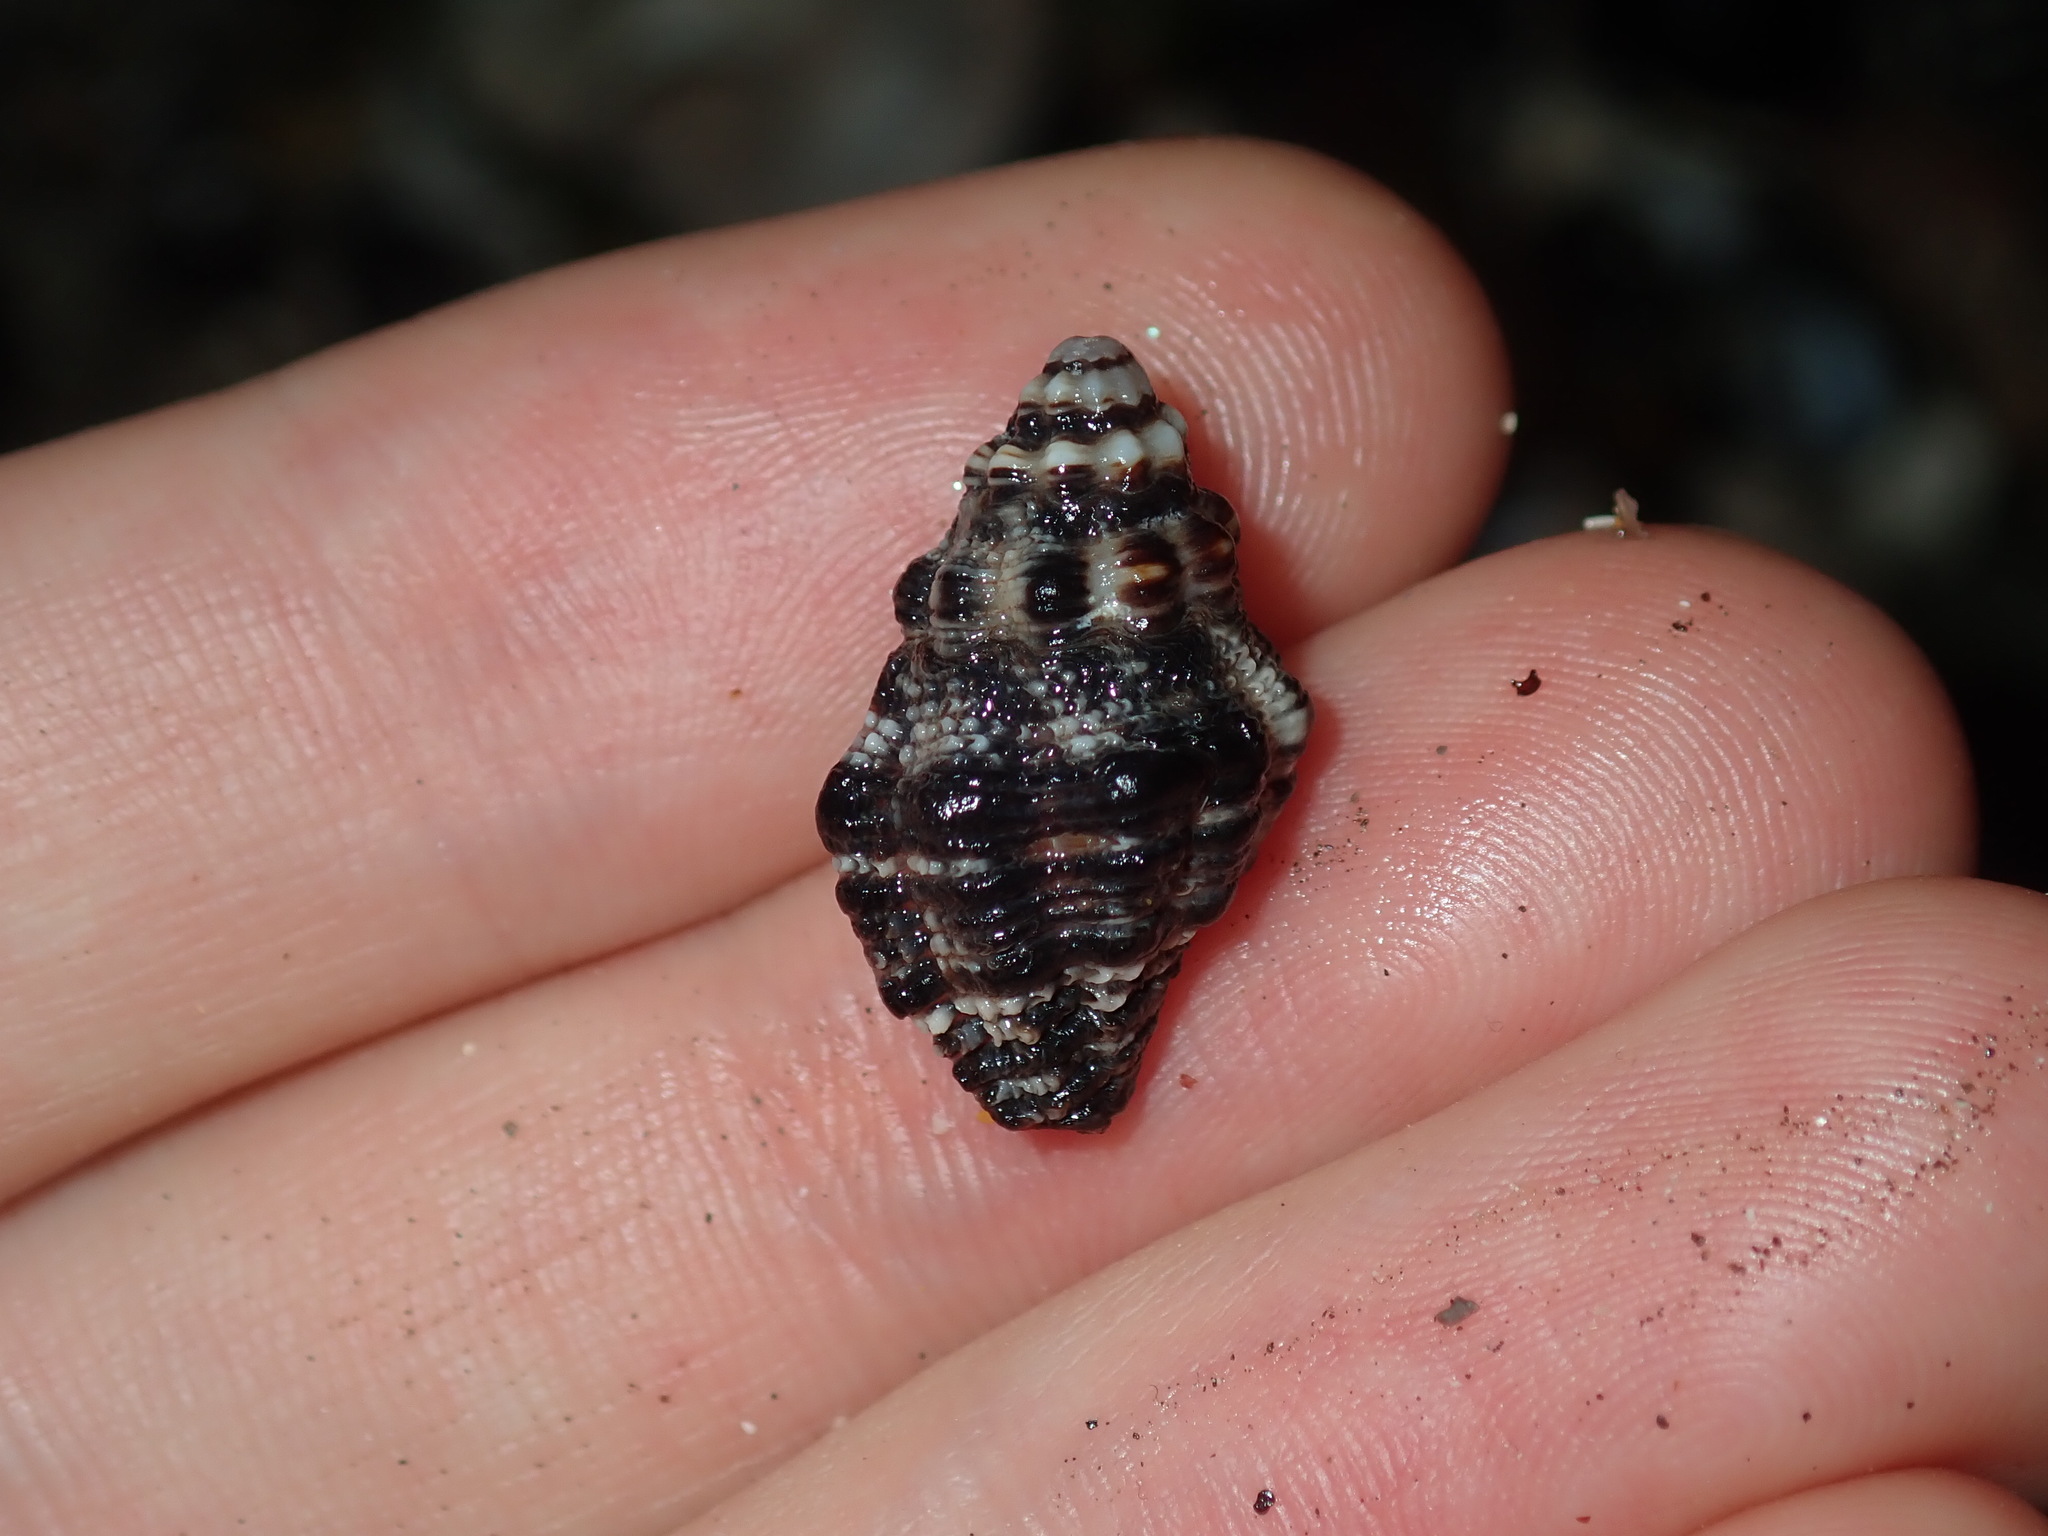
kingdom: Animalia
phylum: Mollusca
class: Gastropoda
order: Neogastropoda
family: Muricidae
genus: Drupella
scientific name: Drupella margariticola
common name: Shouldered castor bean
